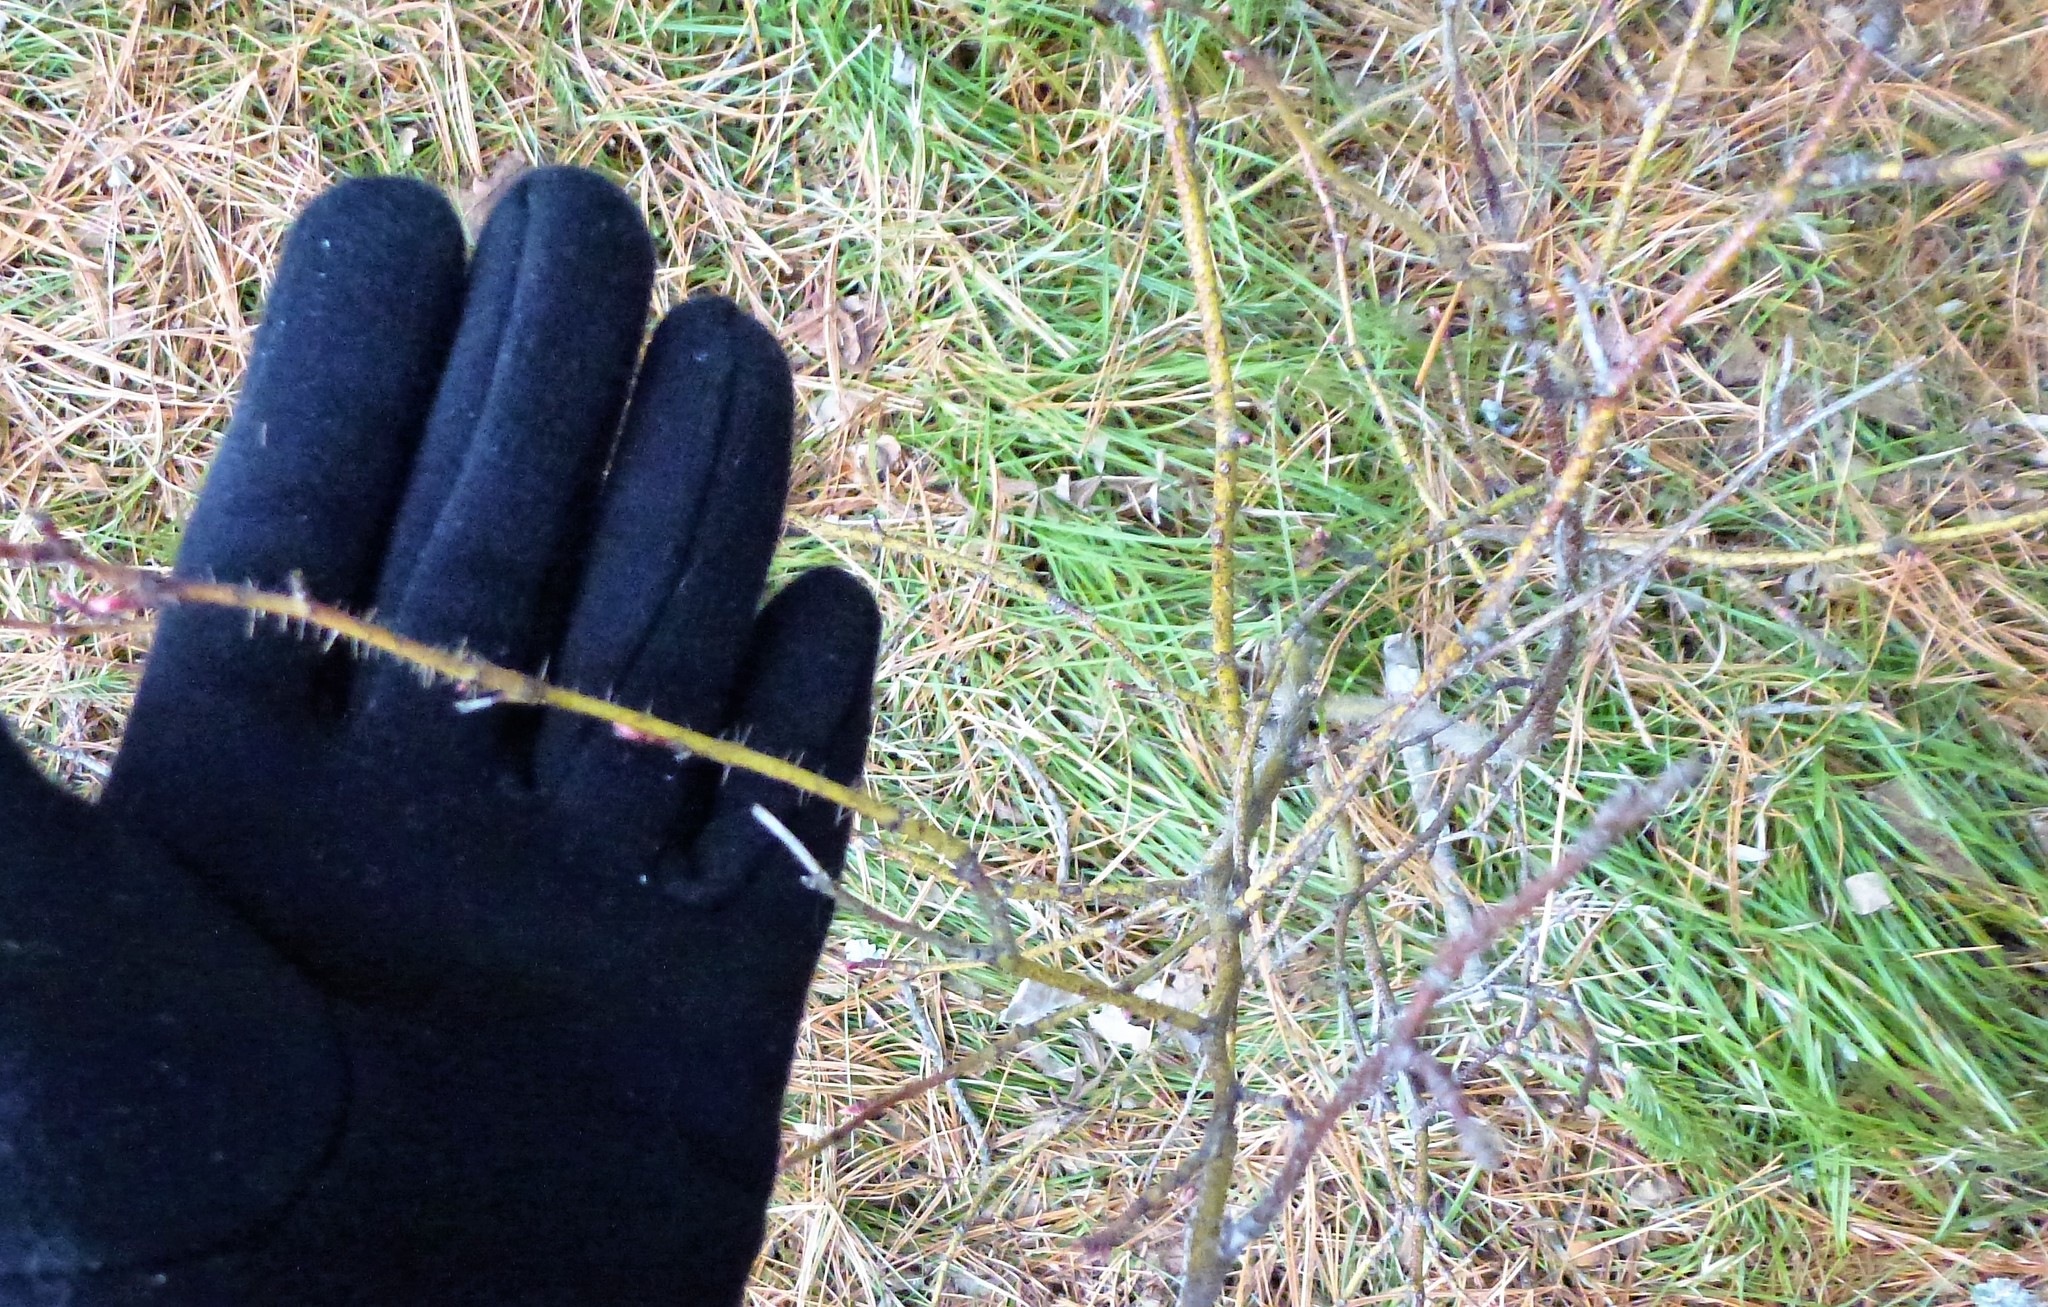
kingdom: Plantae
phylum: Tracheophyta
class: Magnoliopsida
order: Rosales
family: Rosaceae
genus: Rosa
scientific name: Rosa acicularis
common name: Prickly rose
